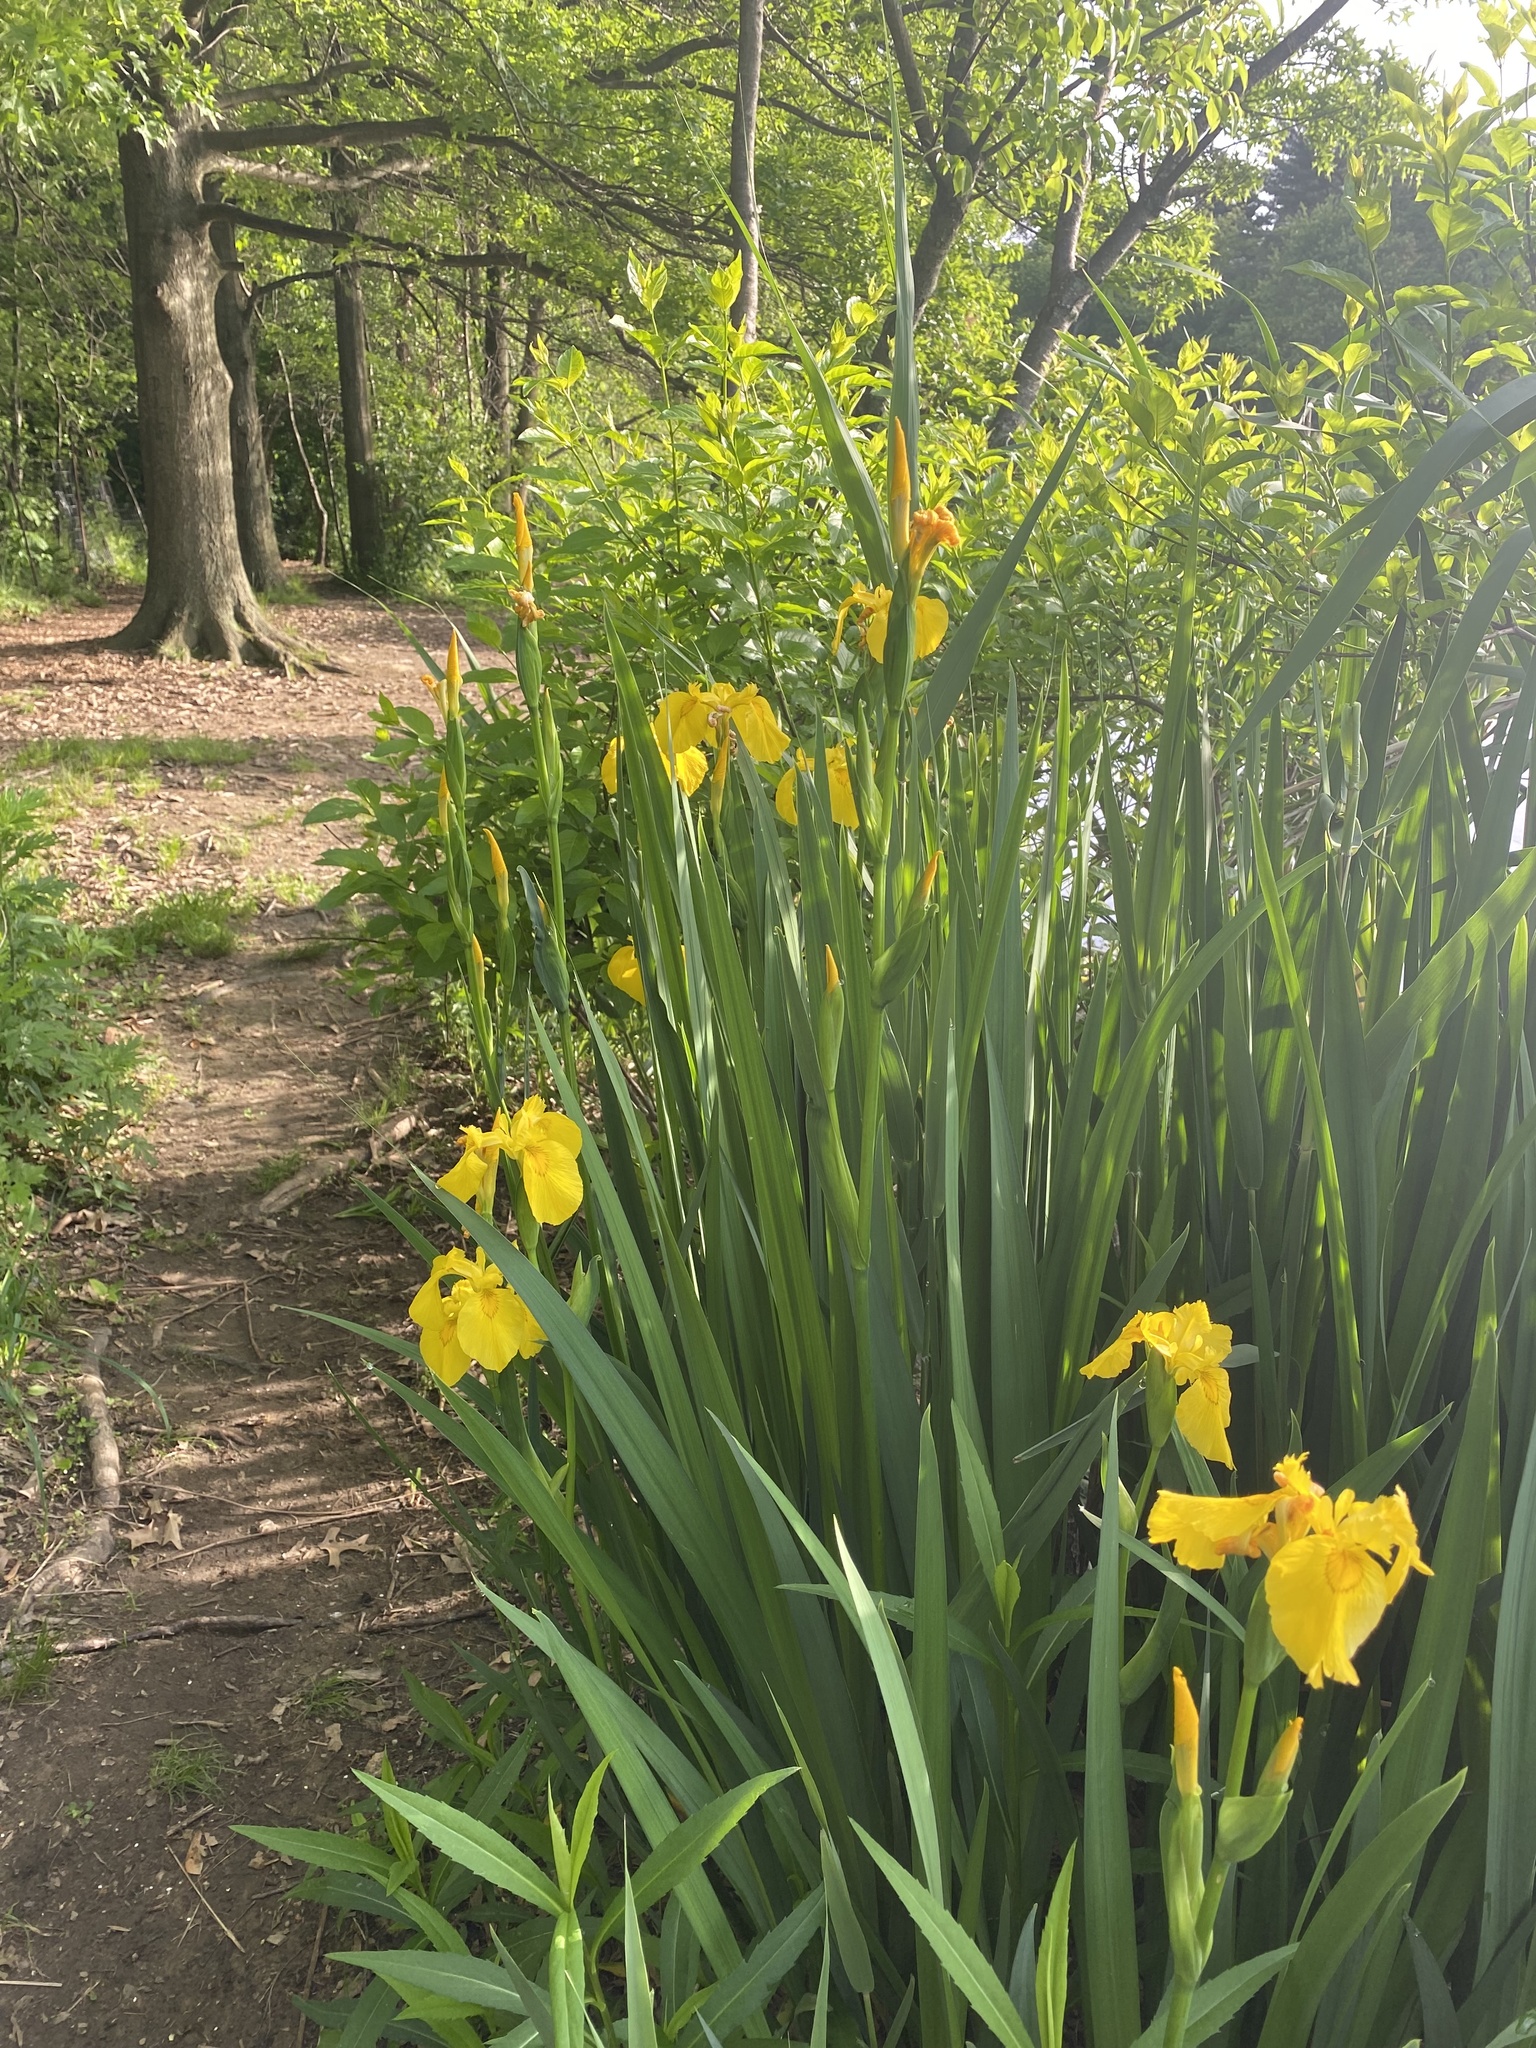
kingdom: Plantae
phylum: Tracheophyta
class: Liliopsida
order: Asparagales
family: Iridaceae
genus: Iris
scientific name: Iris pseudacorus
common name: Yellow flag
